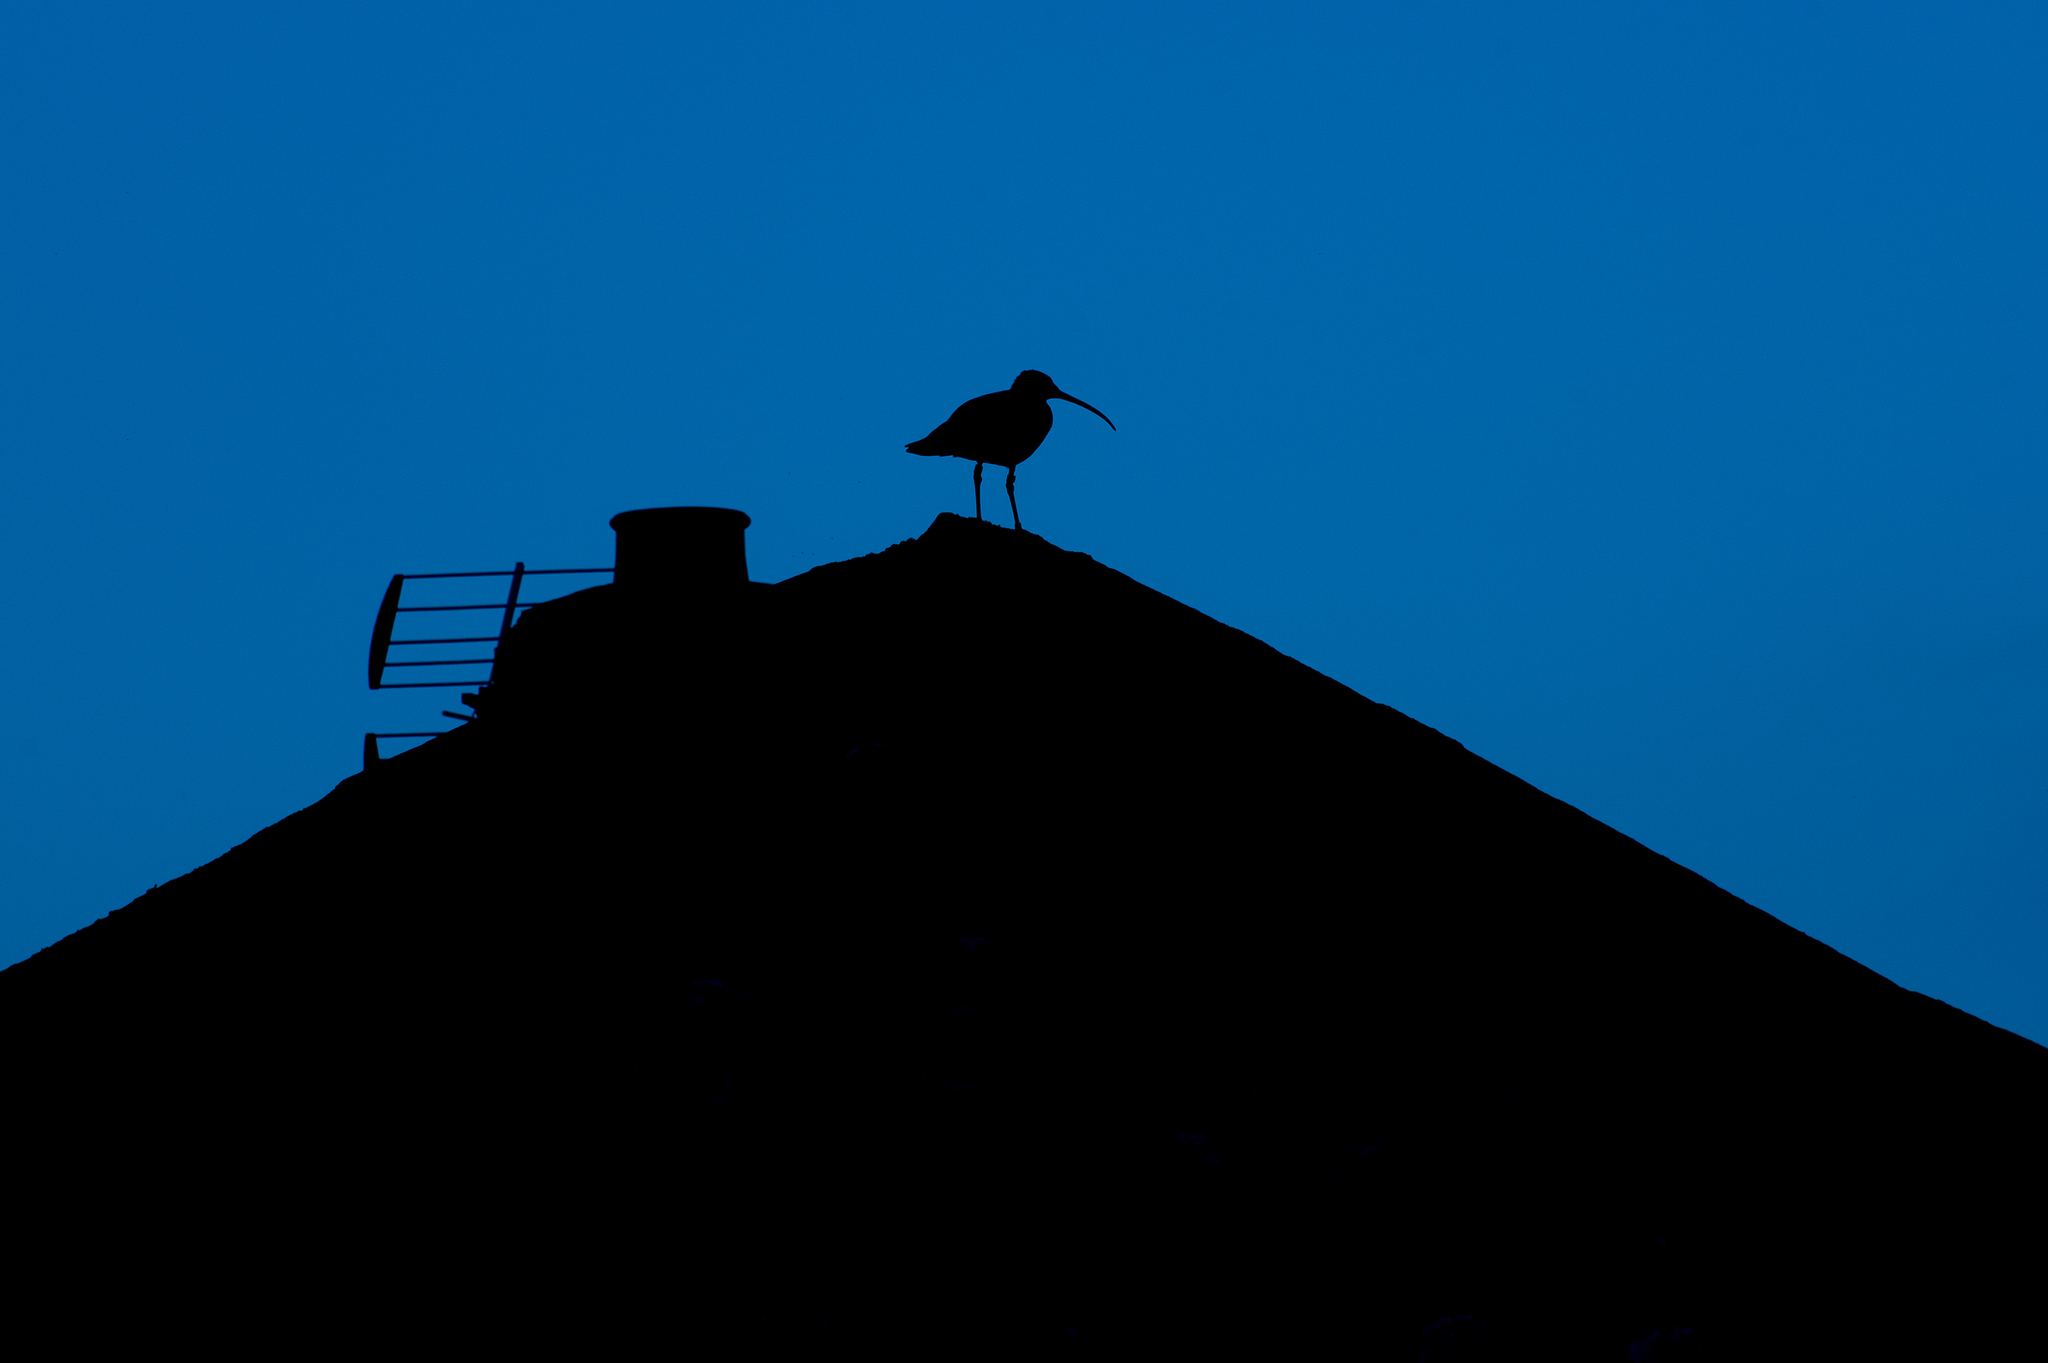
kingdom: Animalia
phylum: Chordata
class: Aves
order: Charadriiformes
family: Scolopacidae
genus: Numenius
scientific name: Numenius arquata
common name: Eurasian curlew
